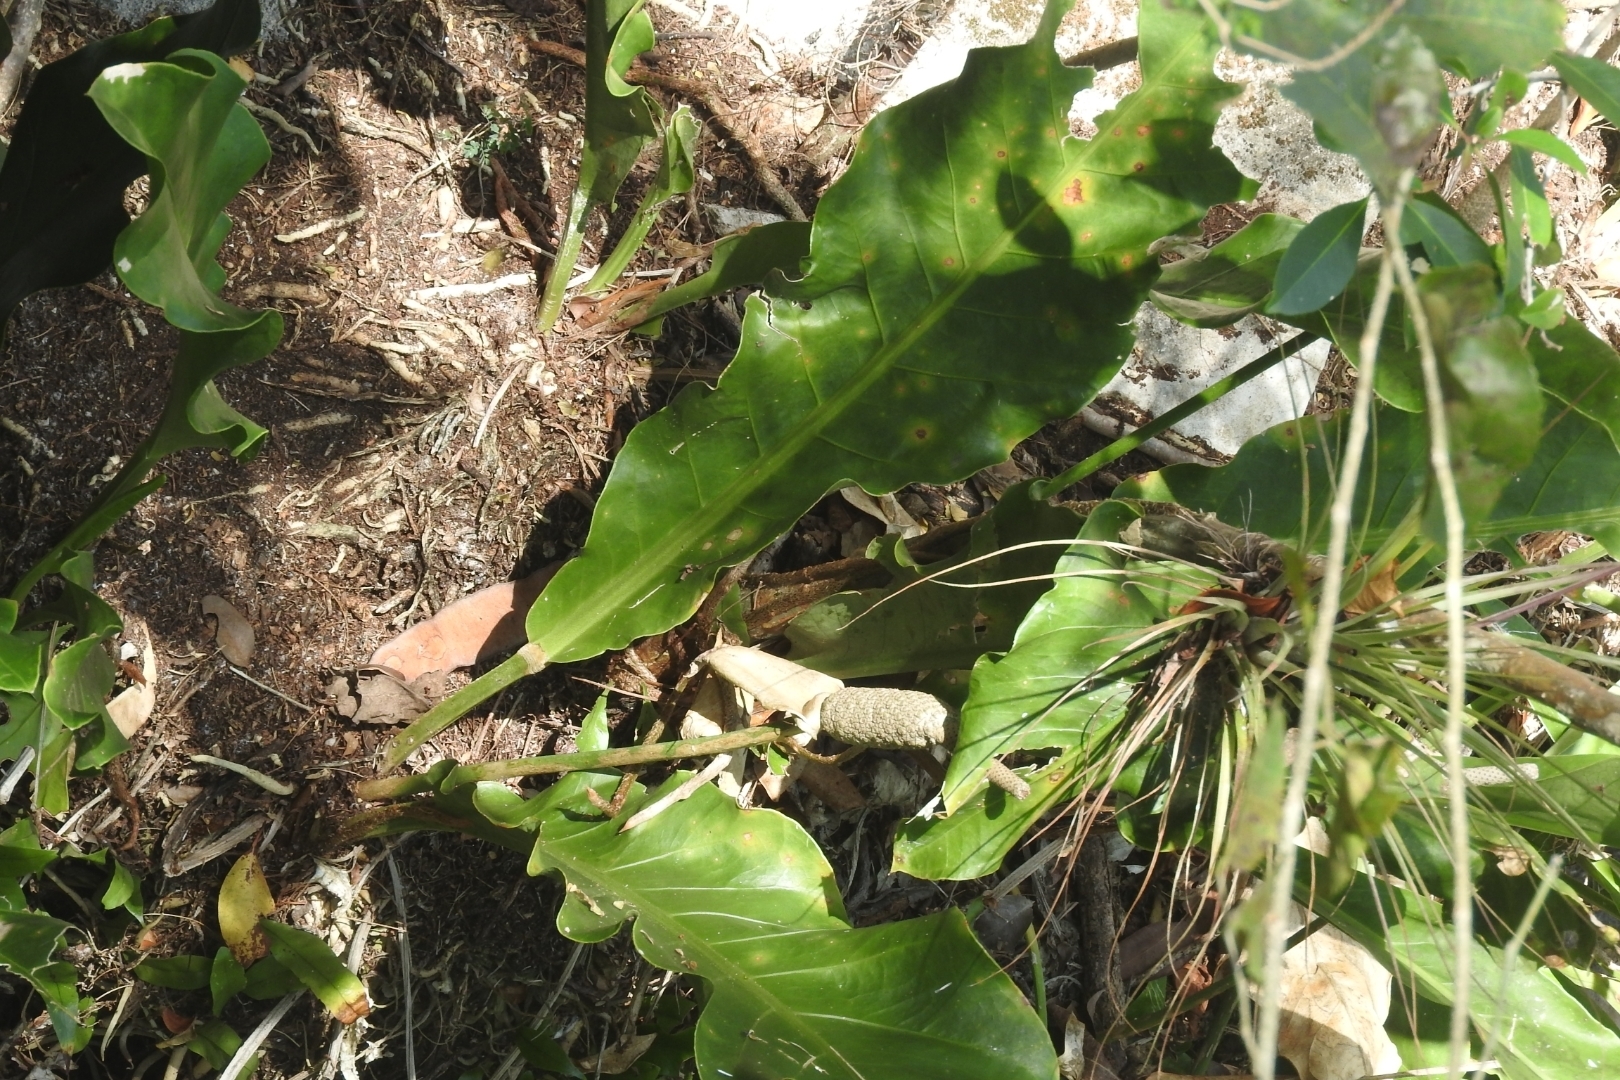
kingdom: Plantae
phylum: Tracheophyta
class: Liliopsida
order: Alismatales
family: Araceae
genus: Anthurium
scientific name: Anthurium schlechtendalii
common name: Laceleaf
